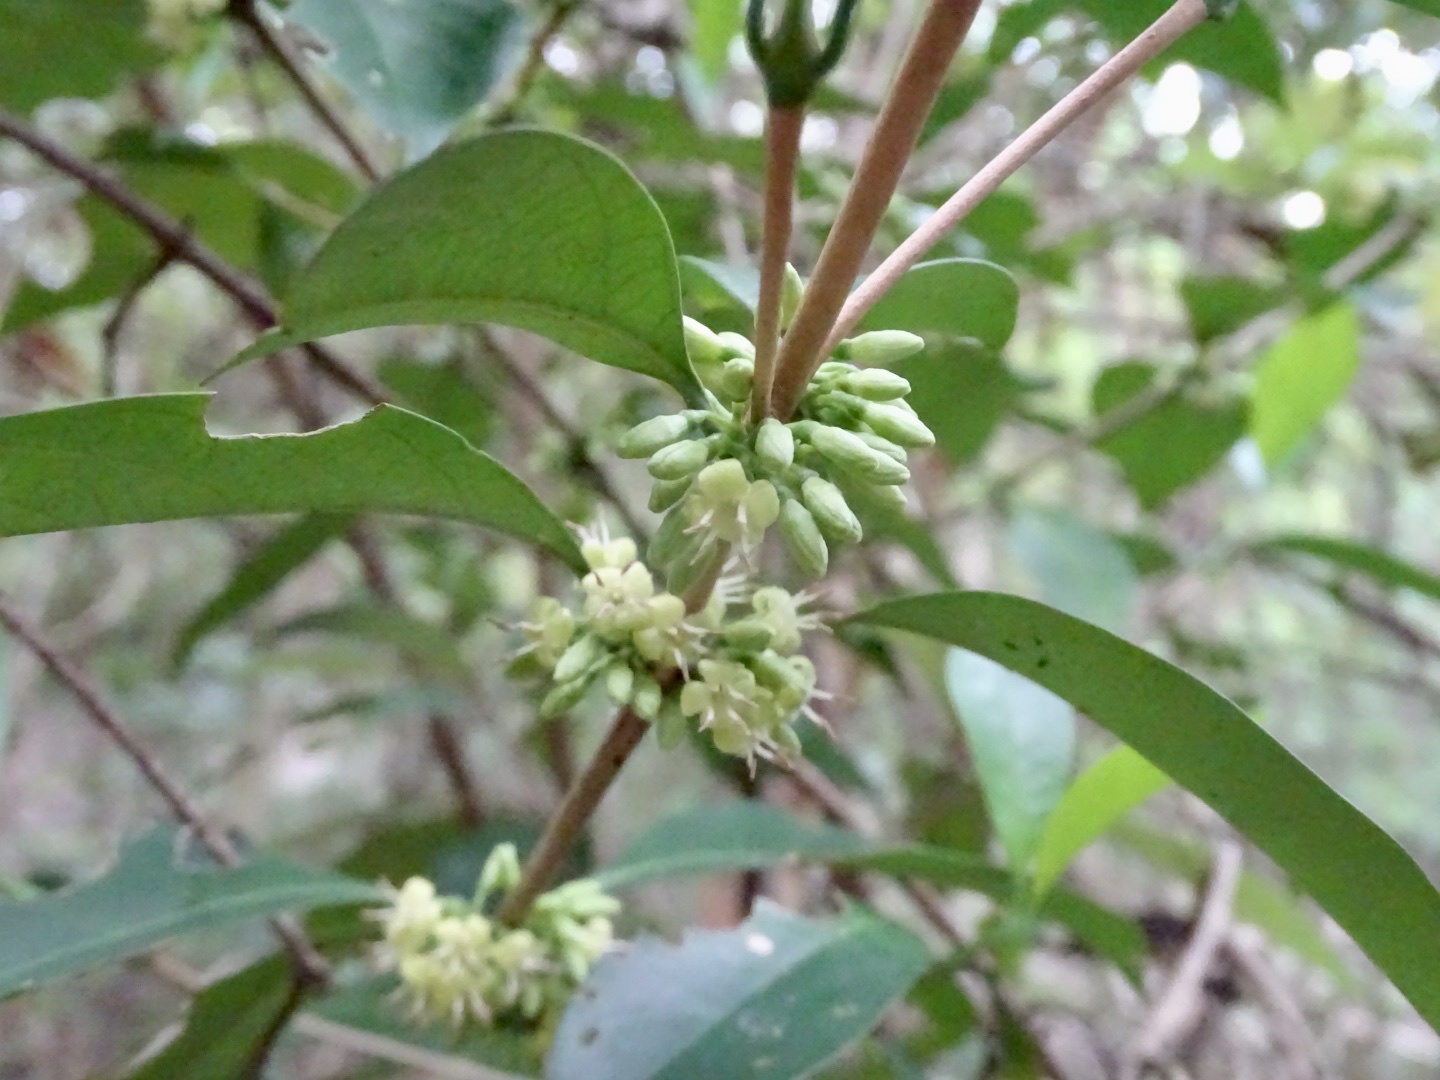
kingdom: Plantae
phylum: Tracheophyta
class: Magnoliopsida
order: Gentianales
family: Rubiaceae
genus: Diplospora
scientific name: Diplospora dubia
